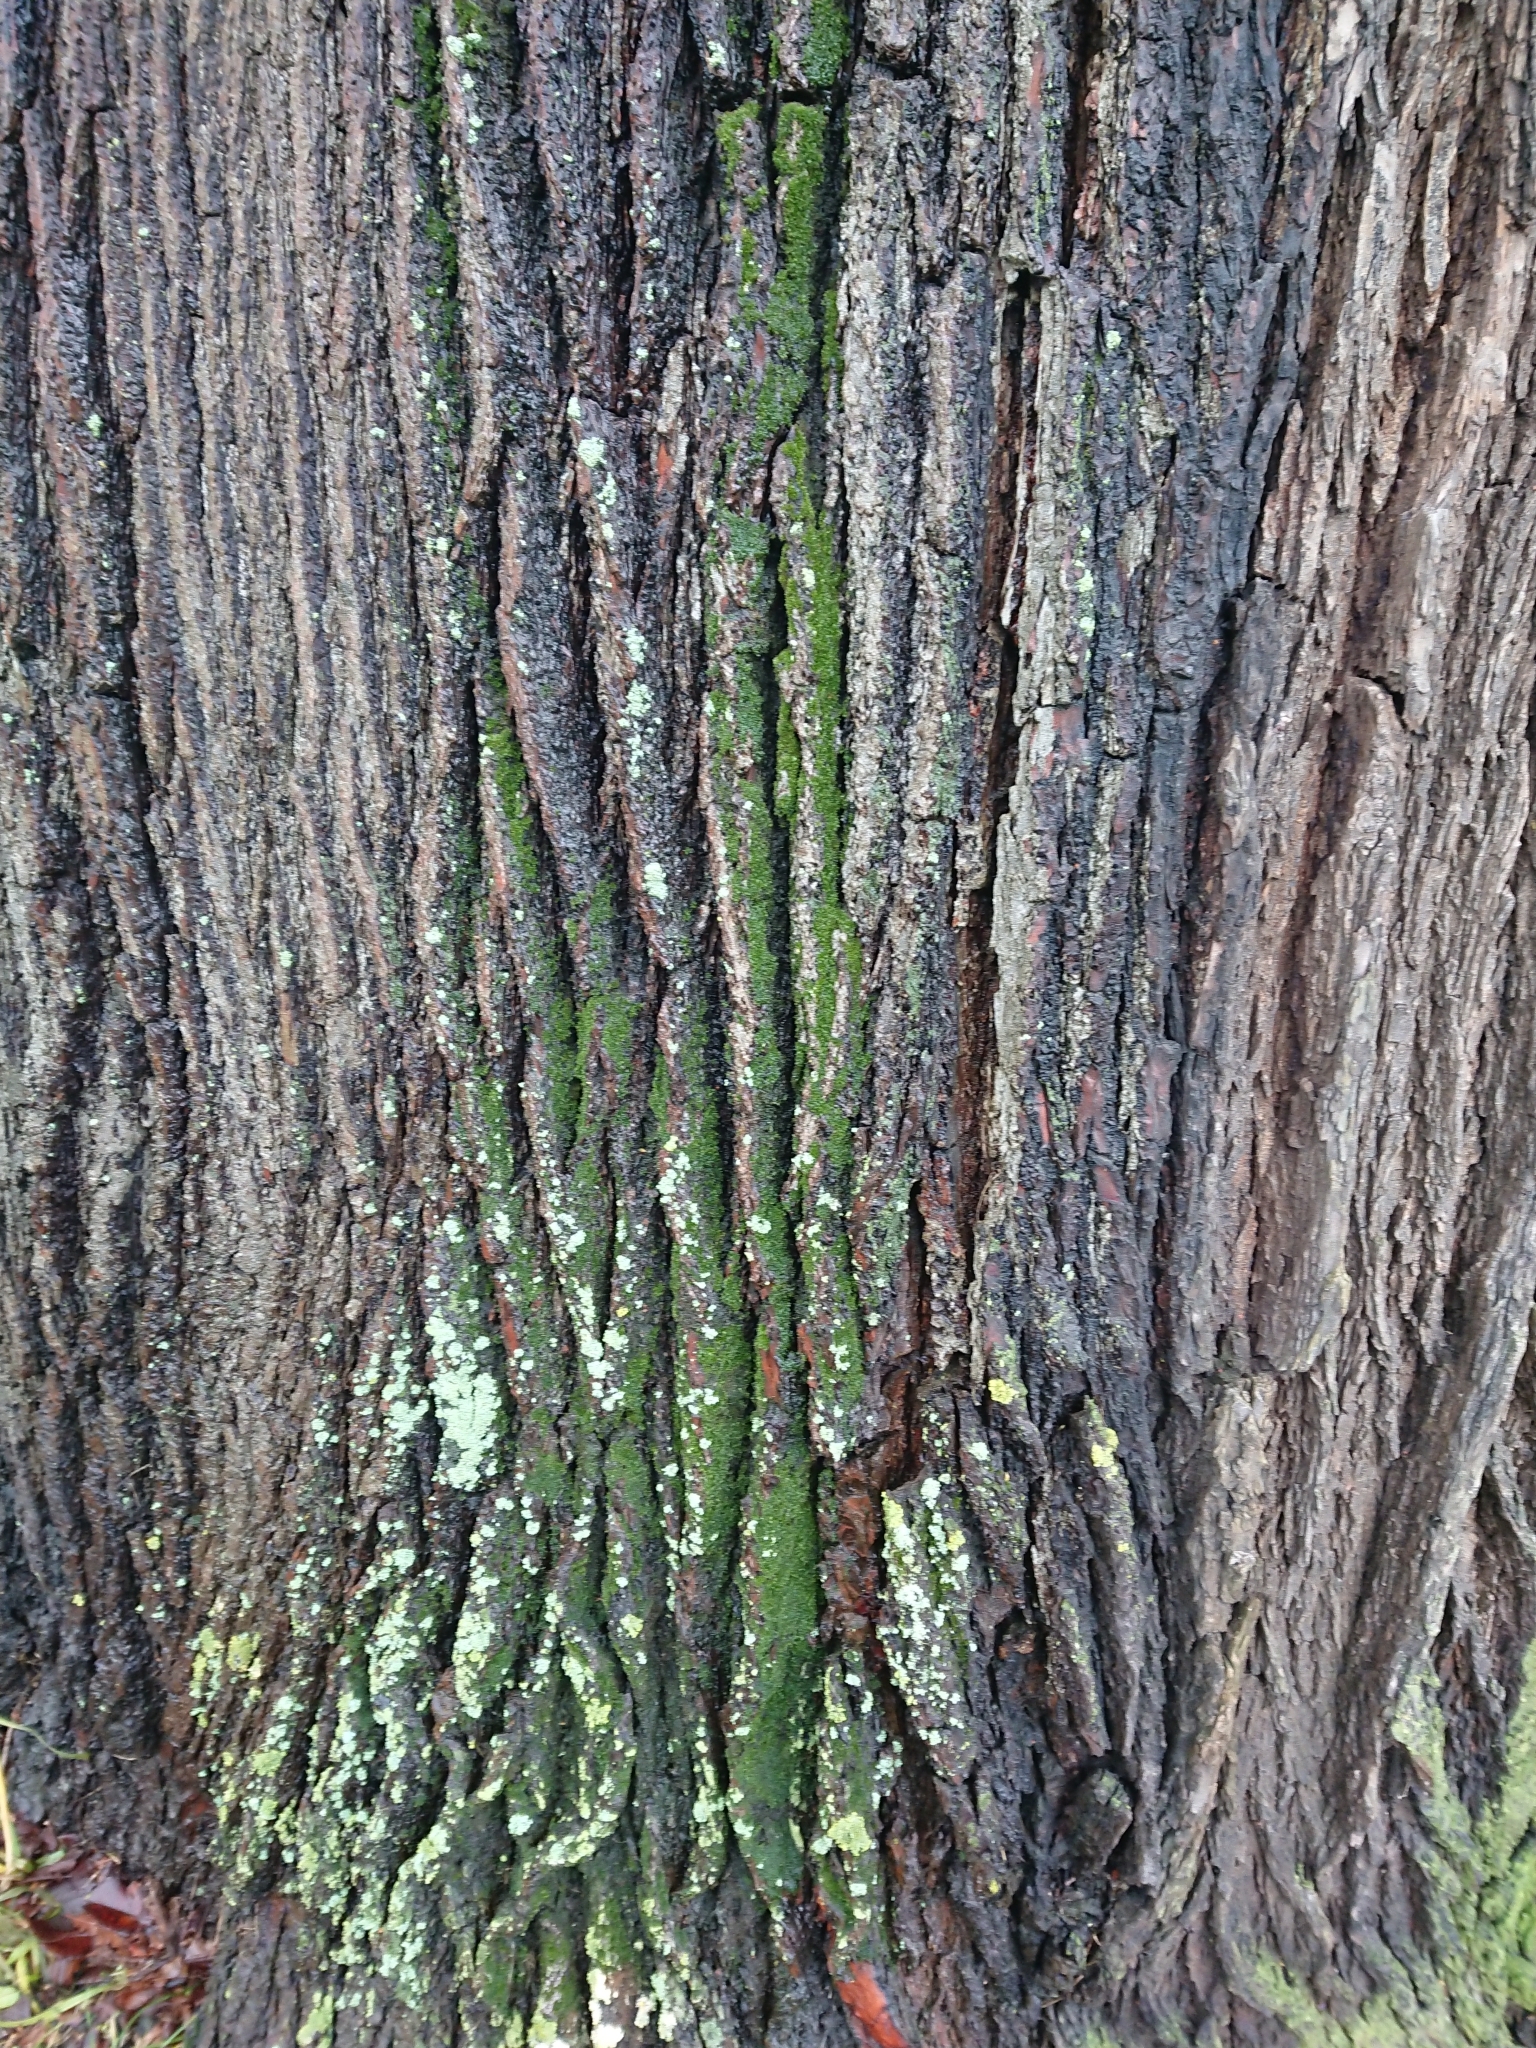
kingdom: Plantae
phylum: Bryophyta
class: Bryopsida
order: Pottiales
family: Pottiaceae
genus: Syntrichia
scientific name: Syntrichia papillosa
